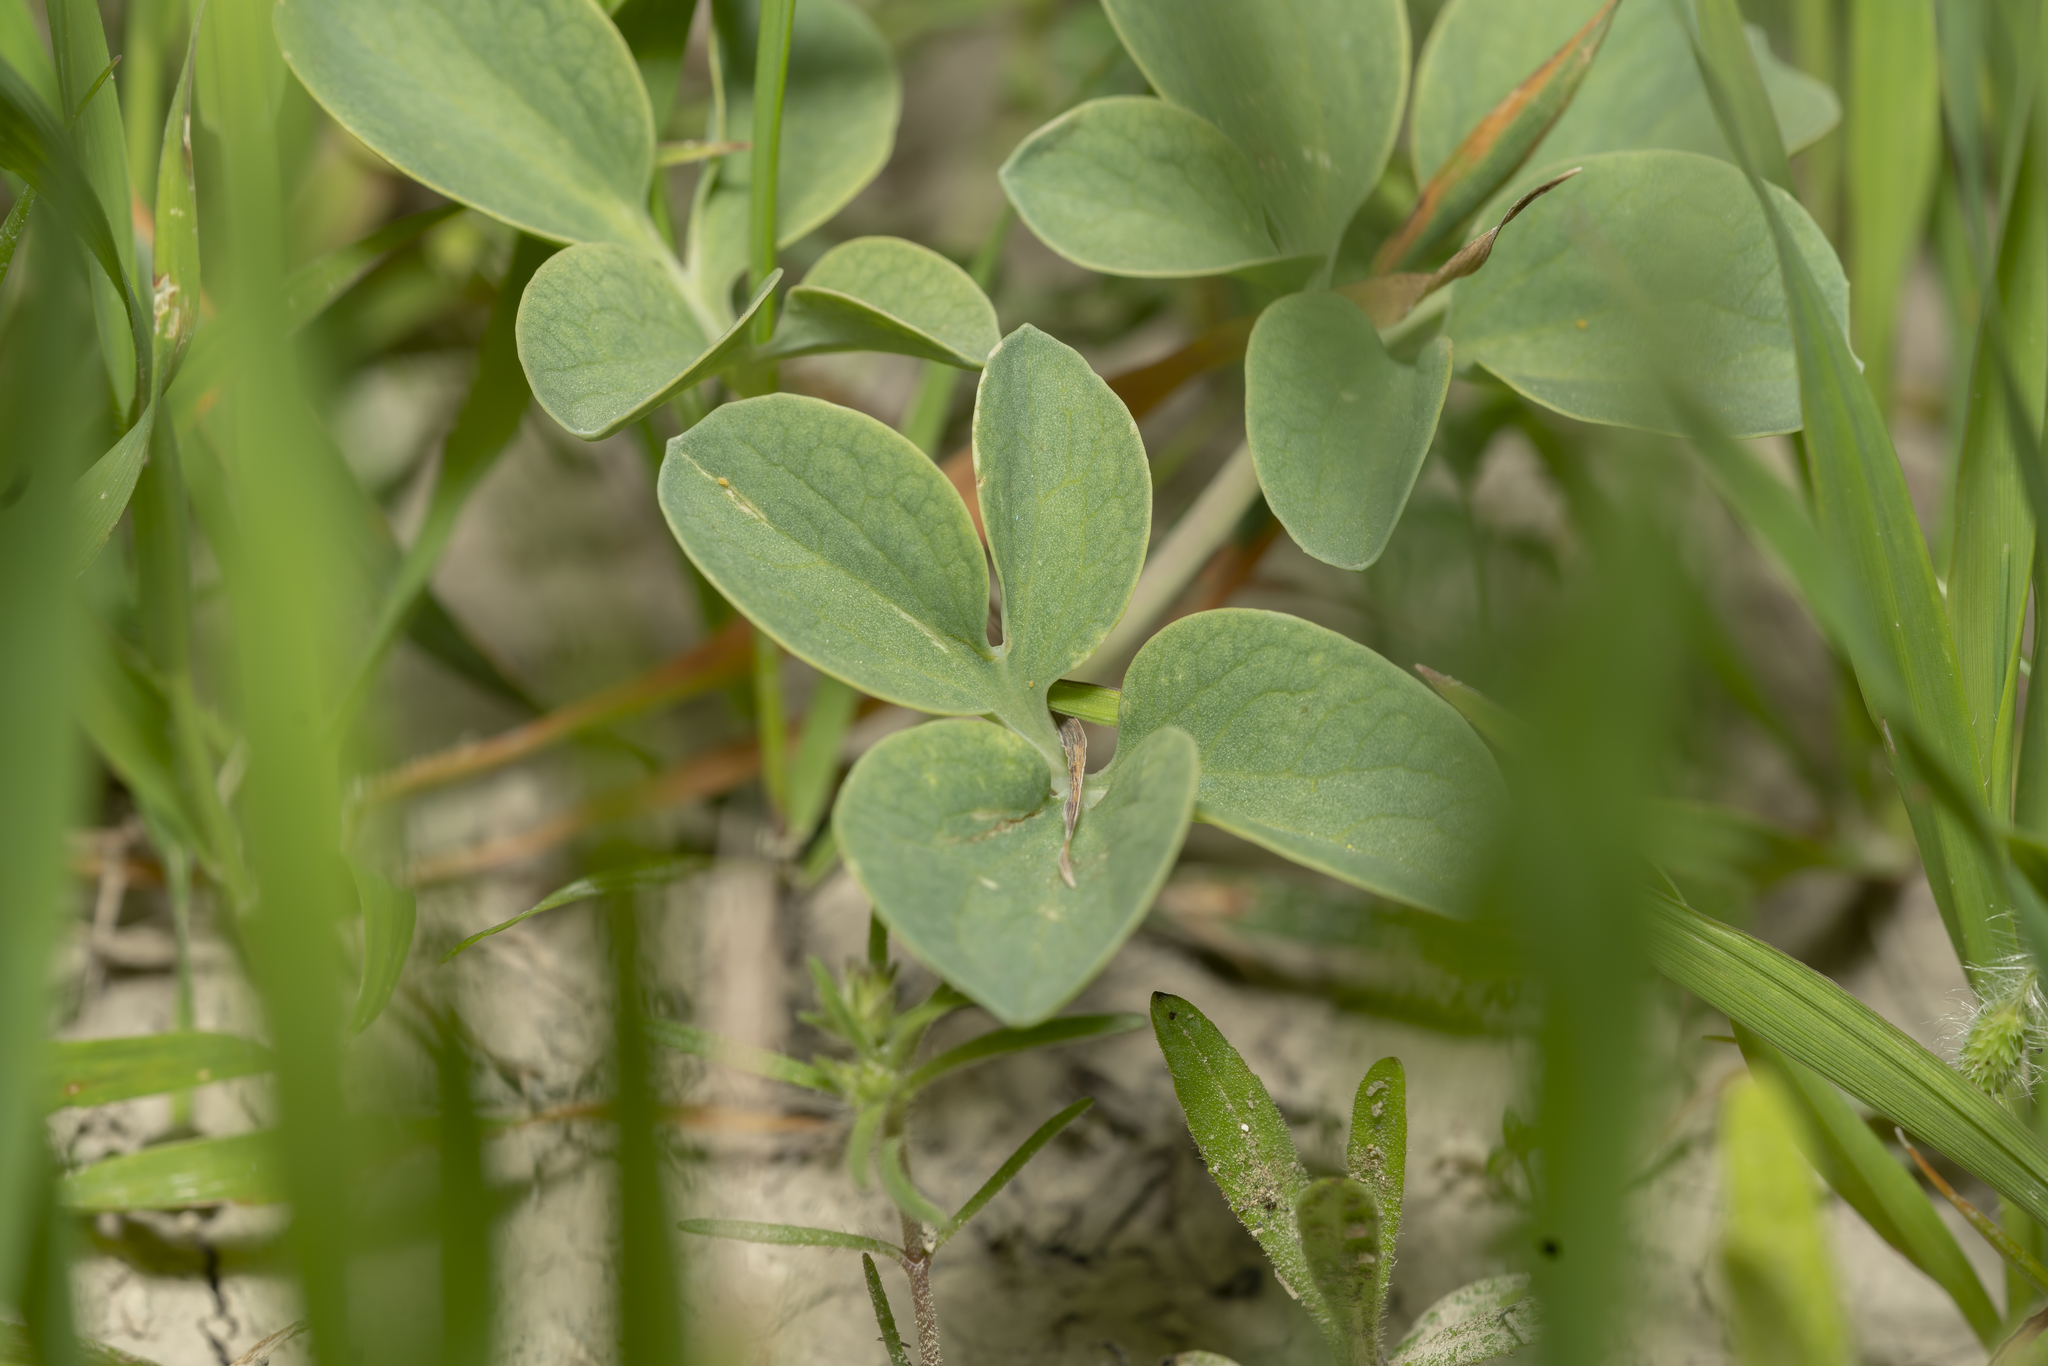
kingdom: Plantae
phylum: Tracheophyta
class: Magnoliopsida
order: Ranunculales
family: Berberidaceae
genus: Leontice
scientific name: Leontice leontopetalum
